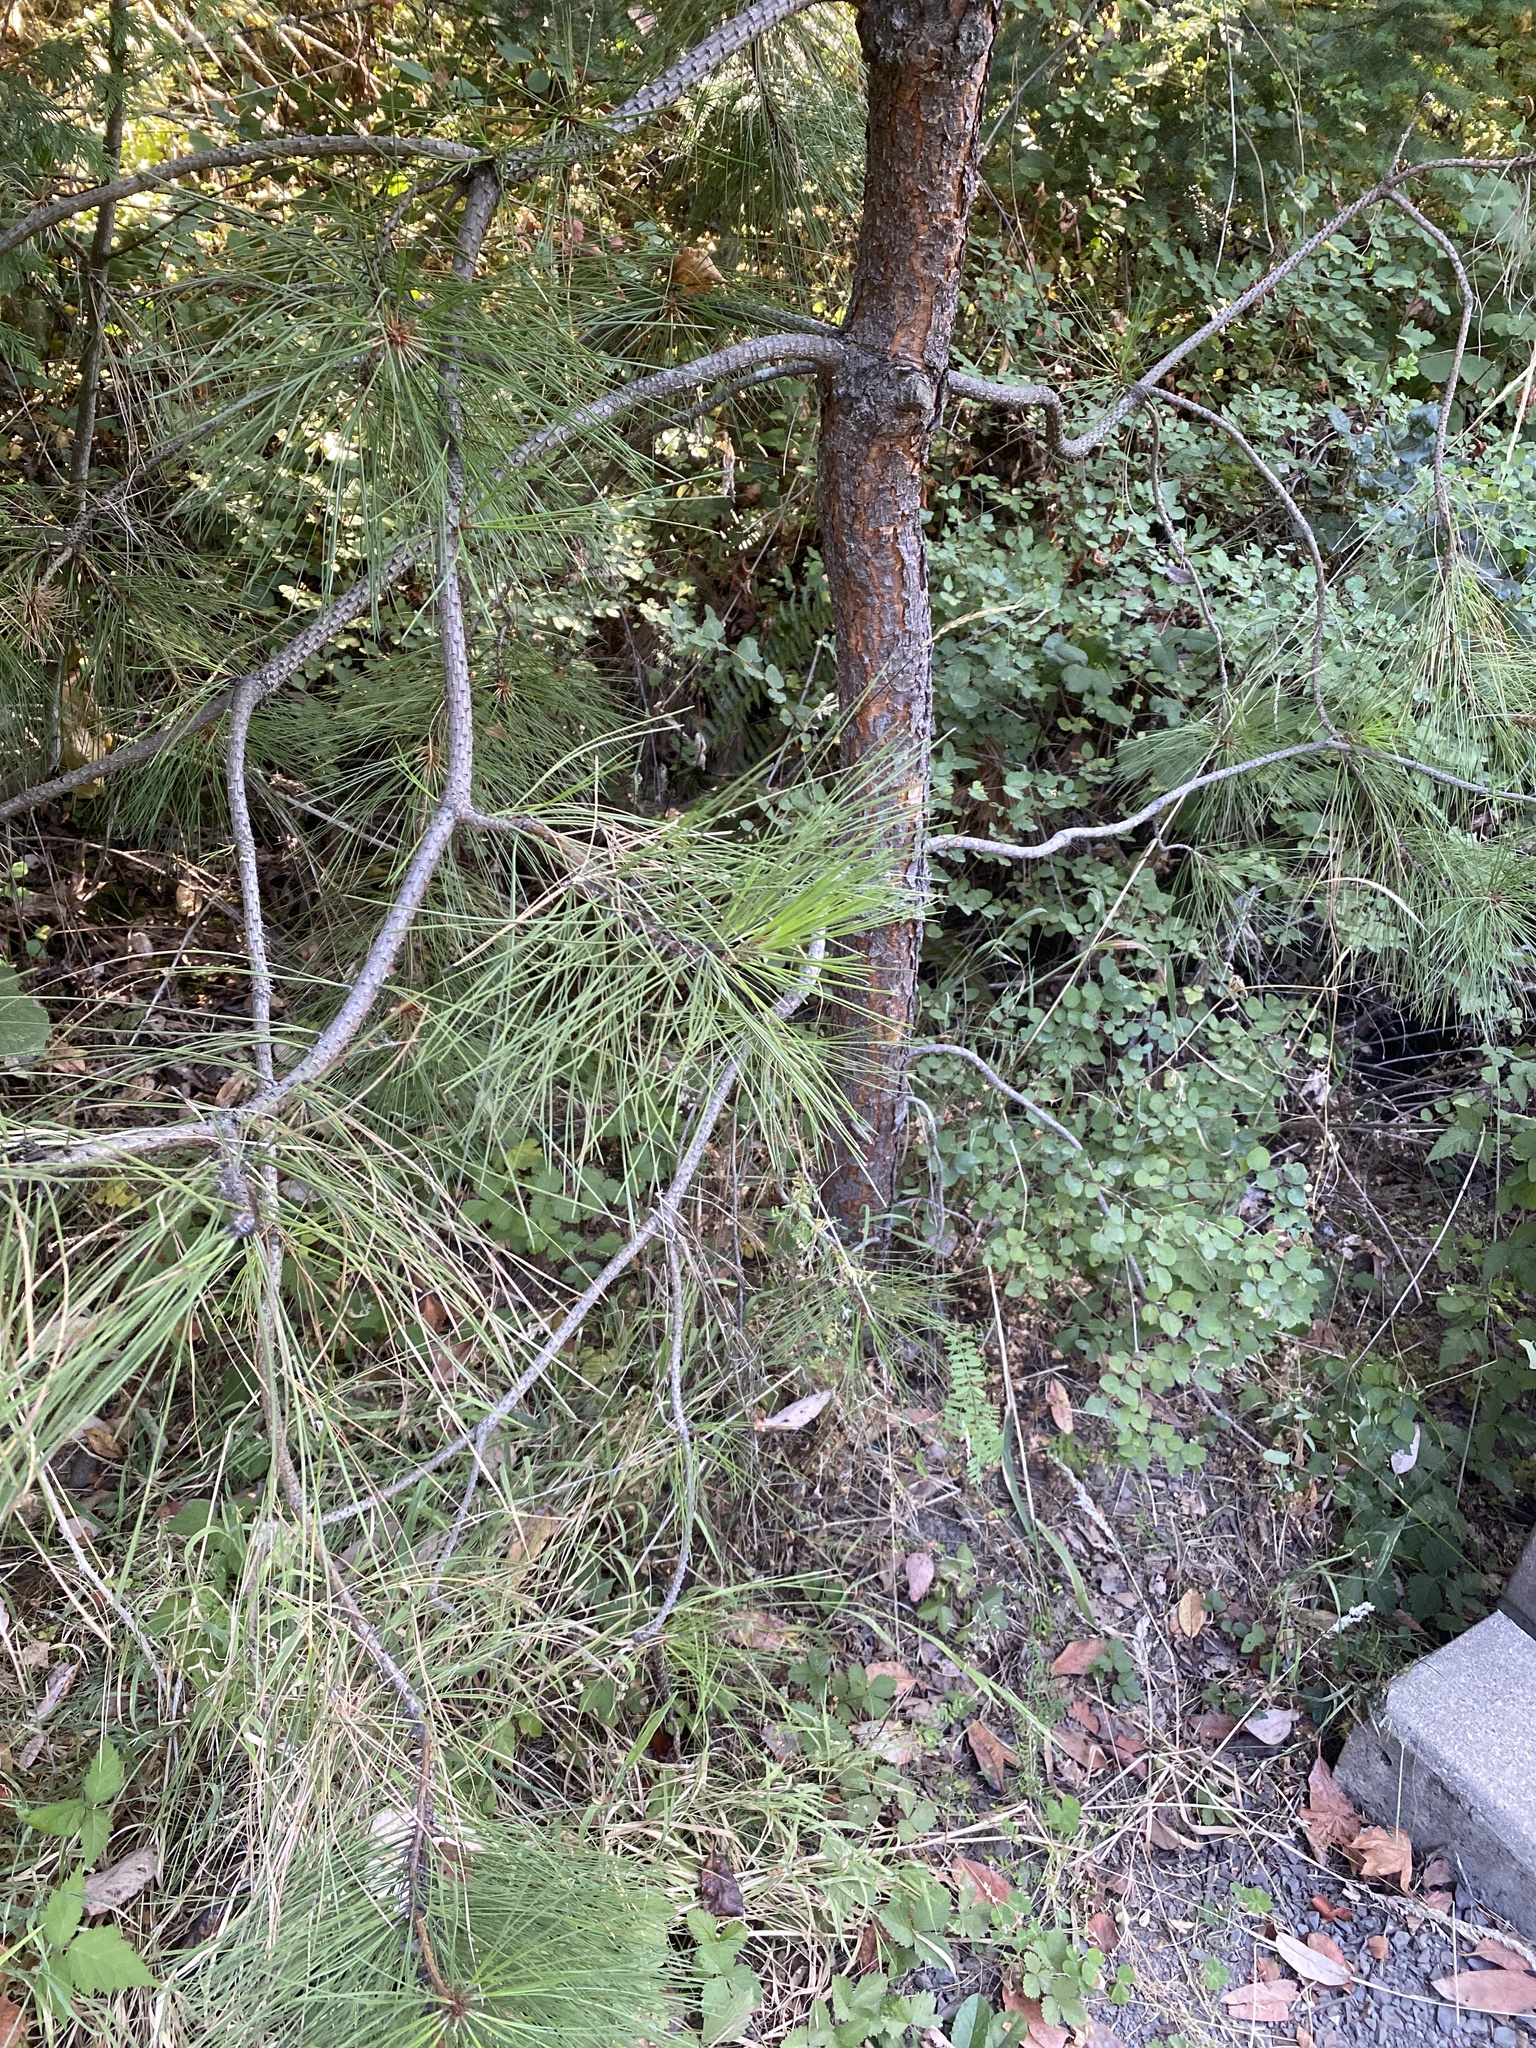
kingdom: Plantae
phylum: Tracheophyta
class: Pinopsida
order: Pinales
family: Pinaceae
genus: Pinus
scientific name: Pinus ponderosa
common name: Western yellow-pine
